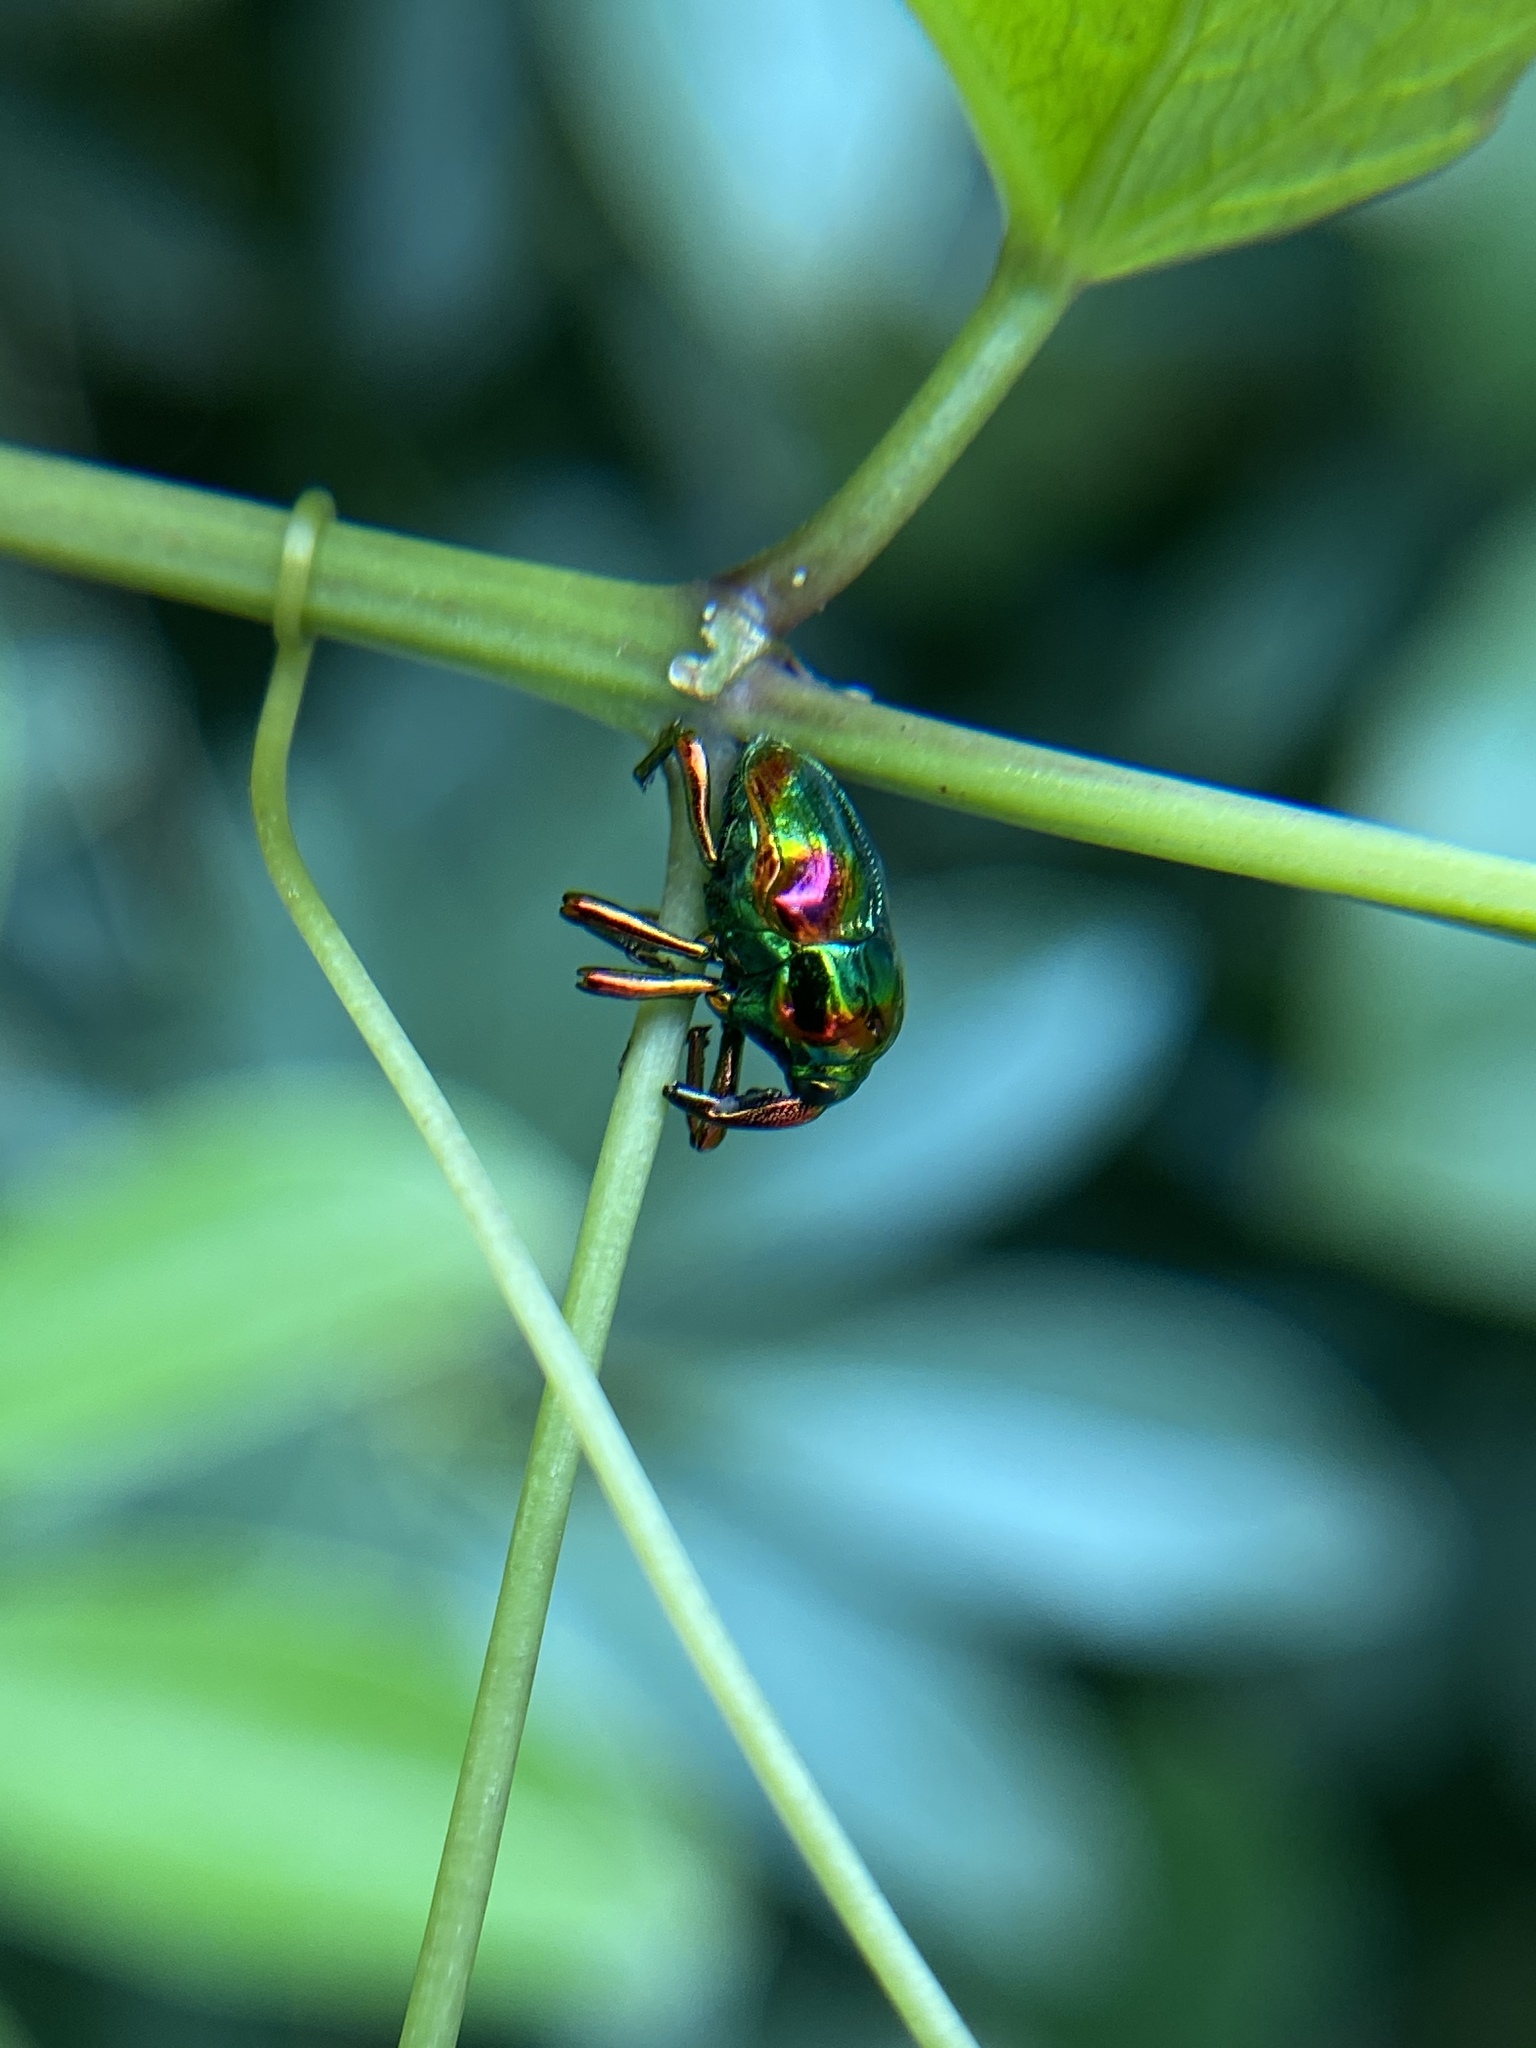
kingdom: Animalia
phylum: Arthropoda
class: Insecta
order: Coleoptera
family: Eurhynchidae
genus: Eurhinus
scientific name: Eurhinus magnificus
